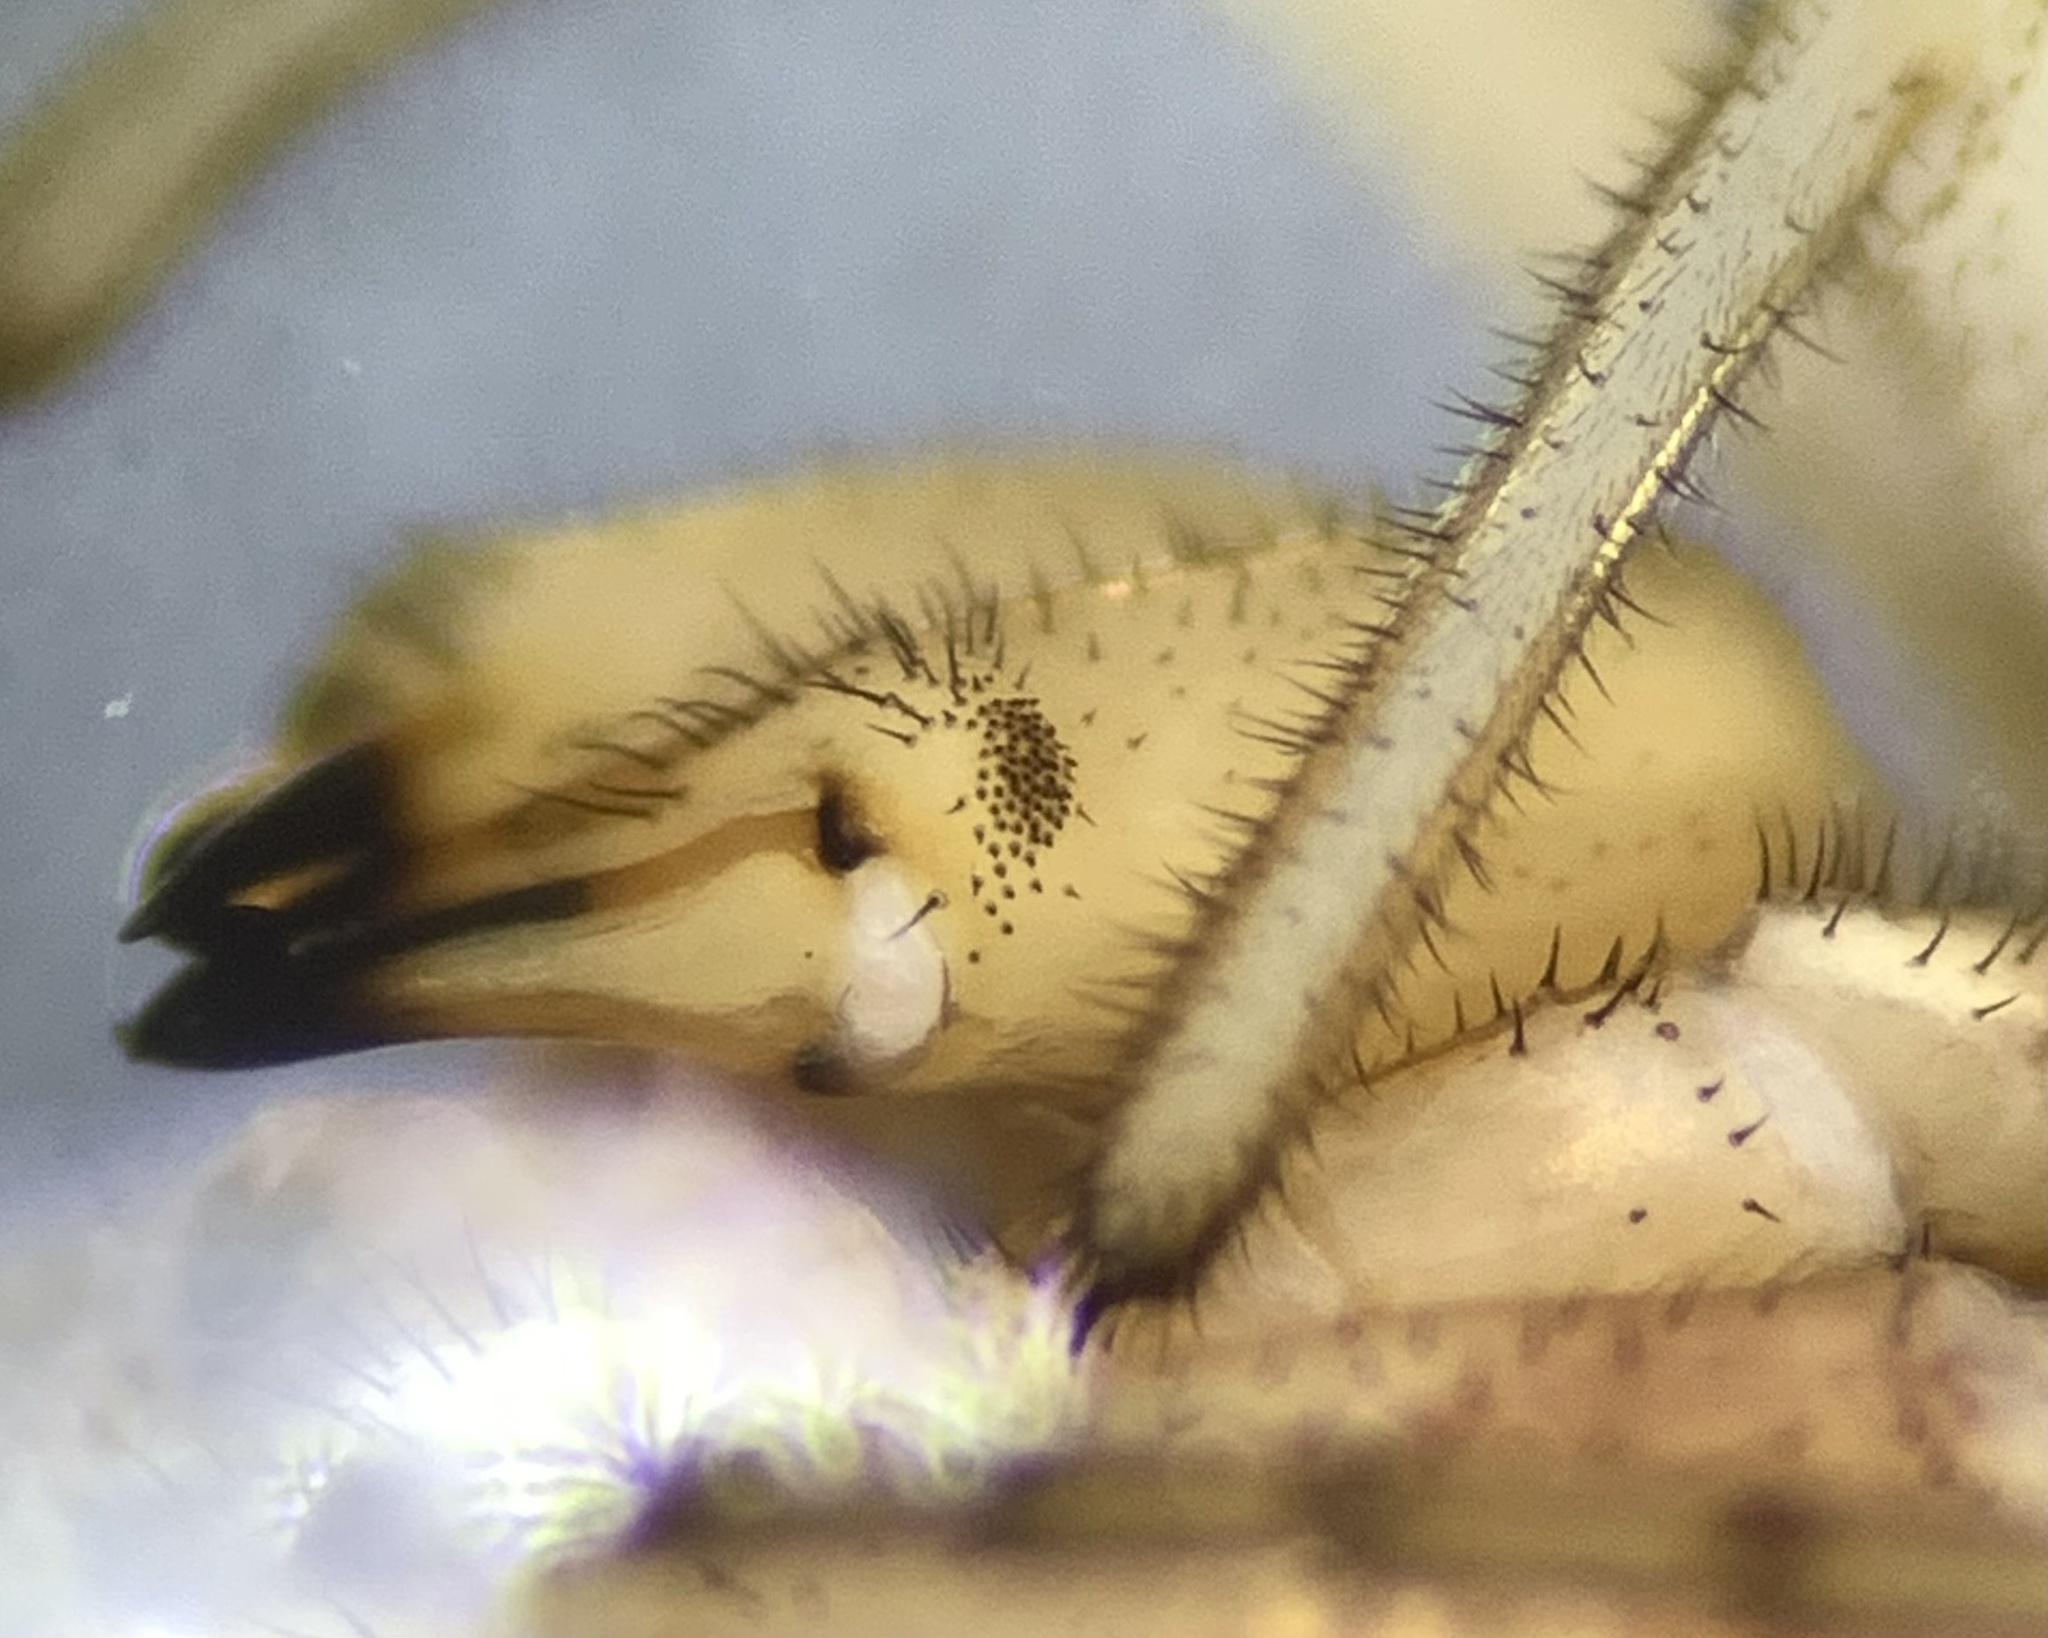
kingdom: Animalia
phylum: Arthropoda
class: Arachnida
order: Opiliones
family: Phalangiidae
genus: Dasylobus
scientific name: Dasylobus graniferus
